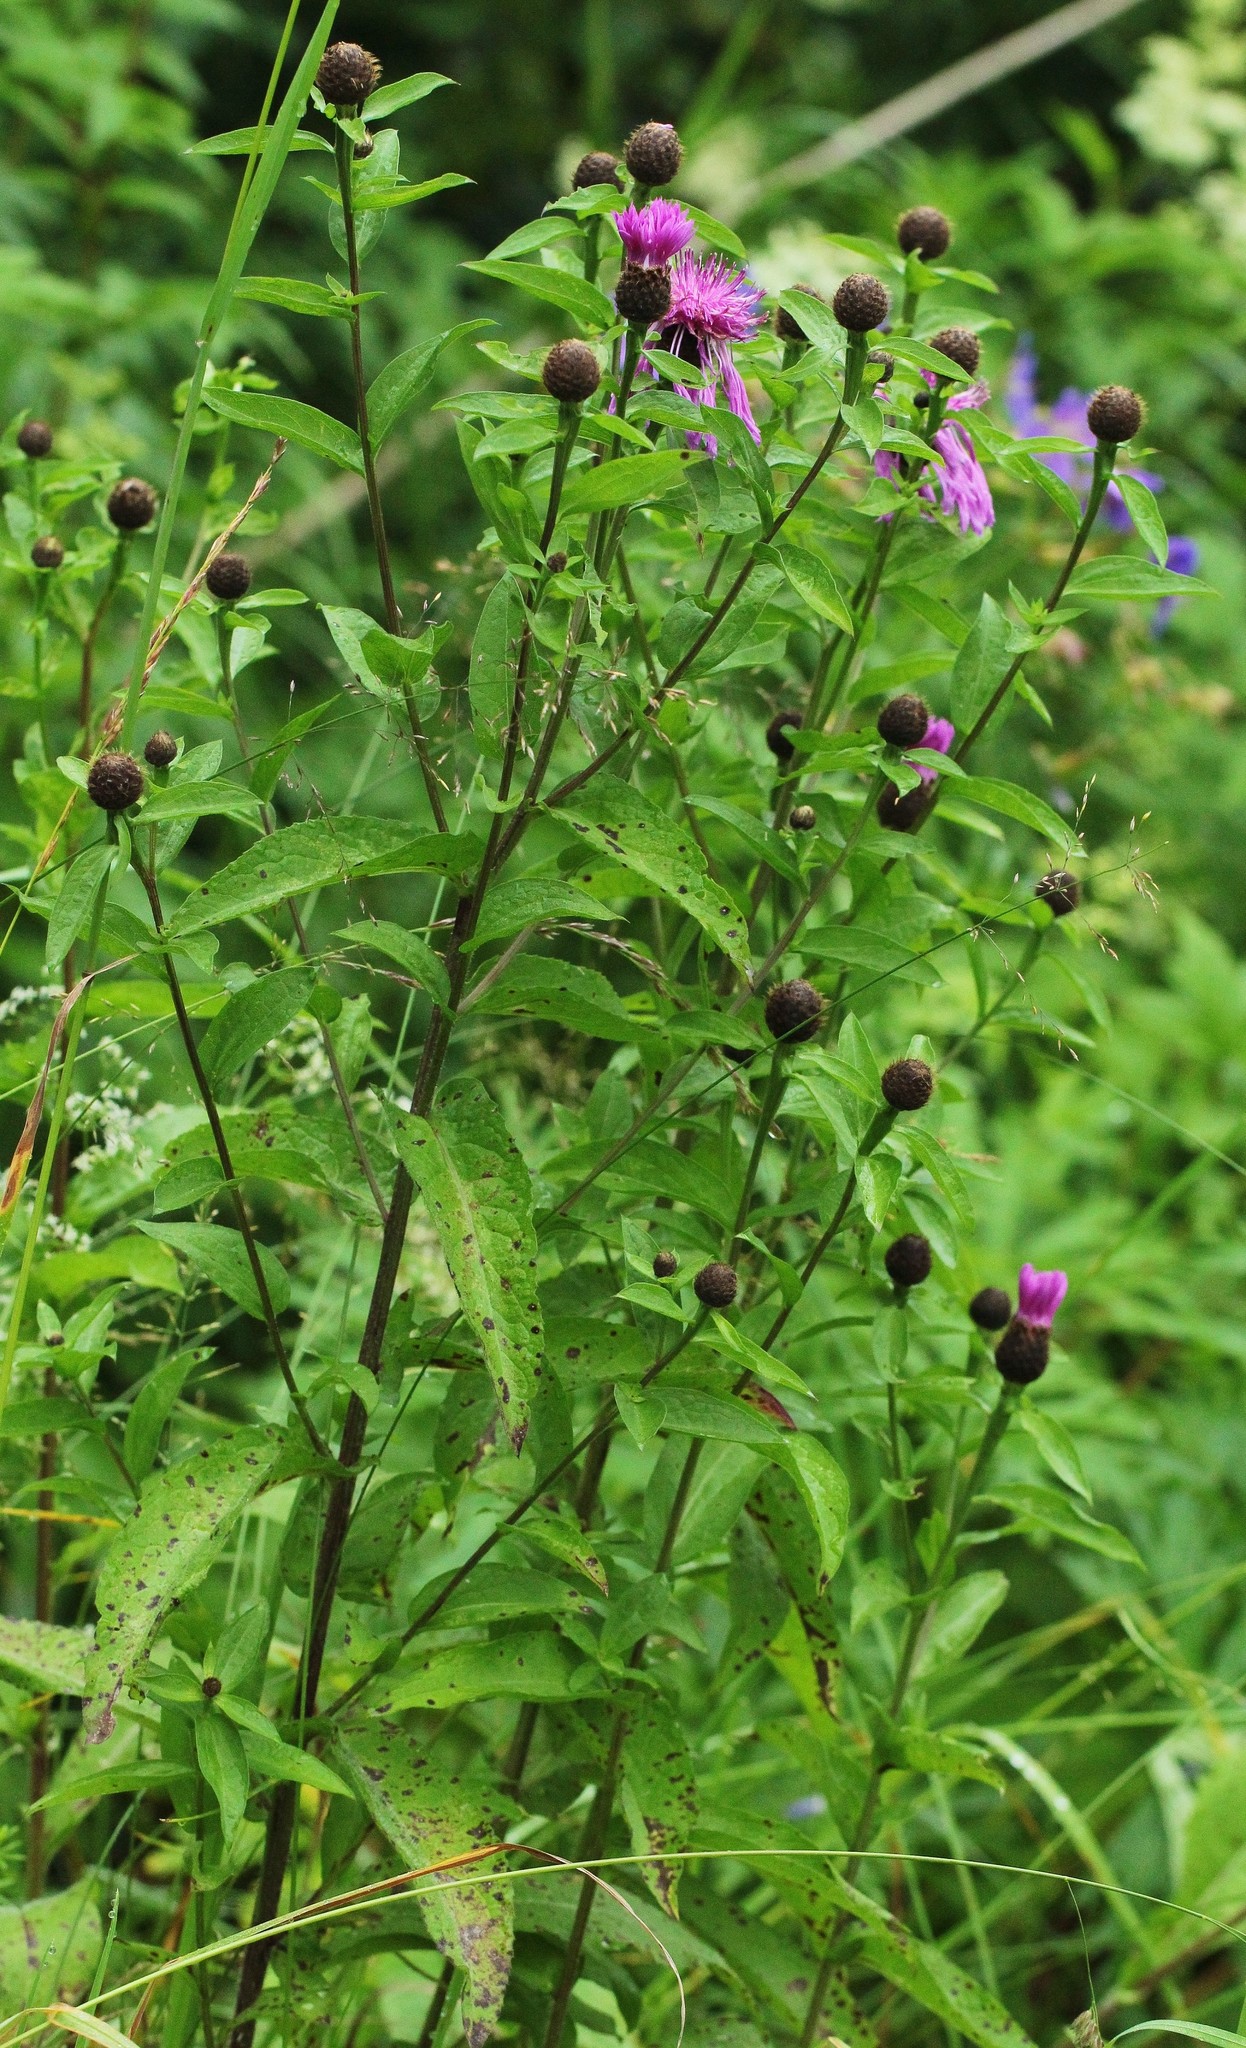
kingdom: Plantae
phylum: Tracheophyta
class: Magnoliopsida
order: Asterales
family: Asteraceae
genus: Centaurea
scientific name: Centaurea phrygia
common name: Wig knapweed
